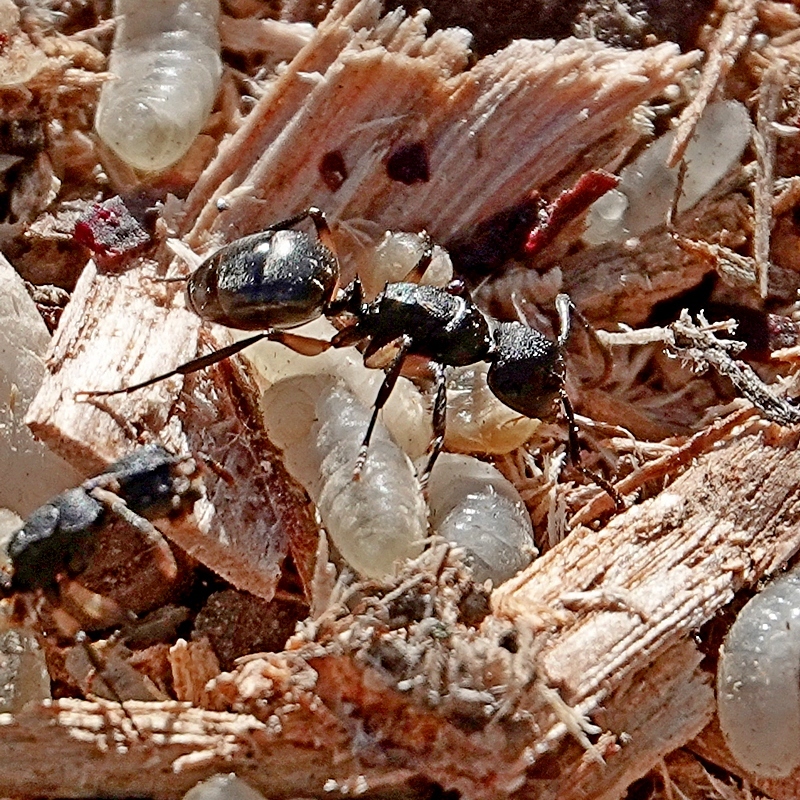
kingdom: Animalia
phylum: Arthropoda
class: Insecta
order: Hymenoptera
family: Formicidae
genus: Polyrhachis
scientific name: Polyrhachis femorata
